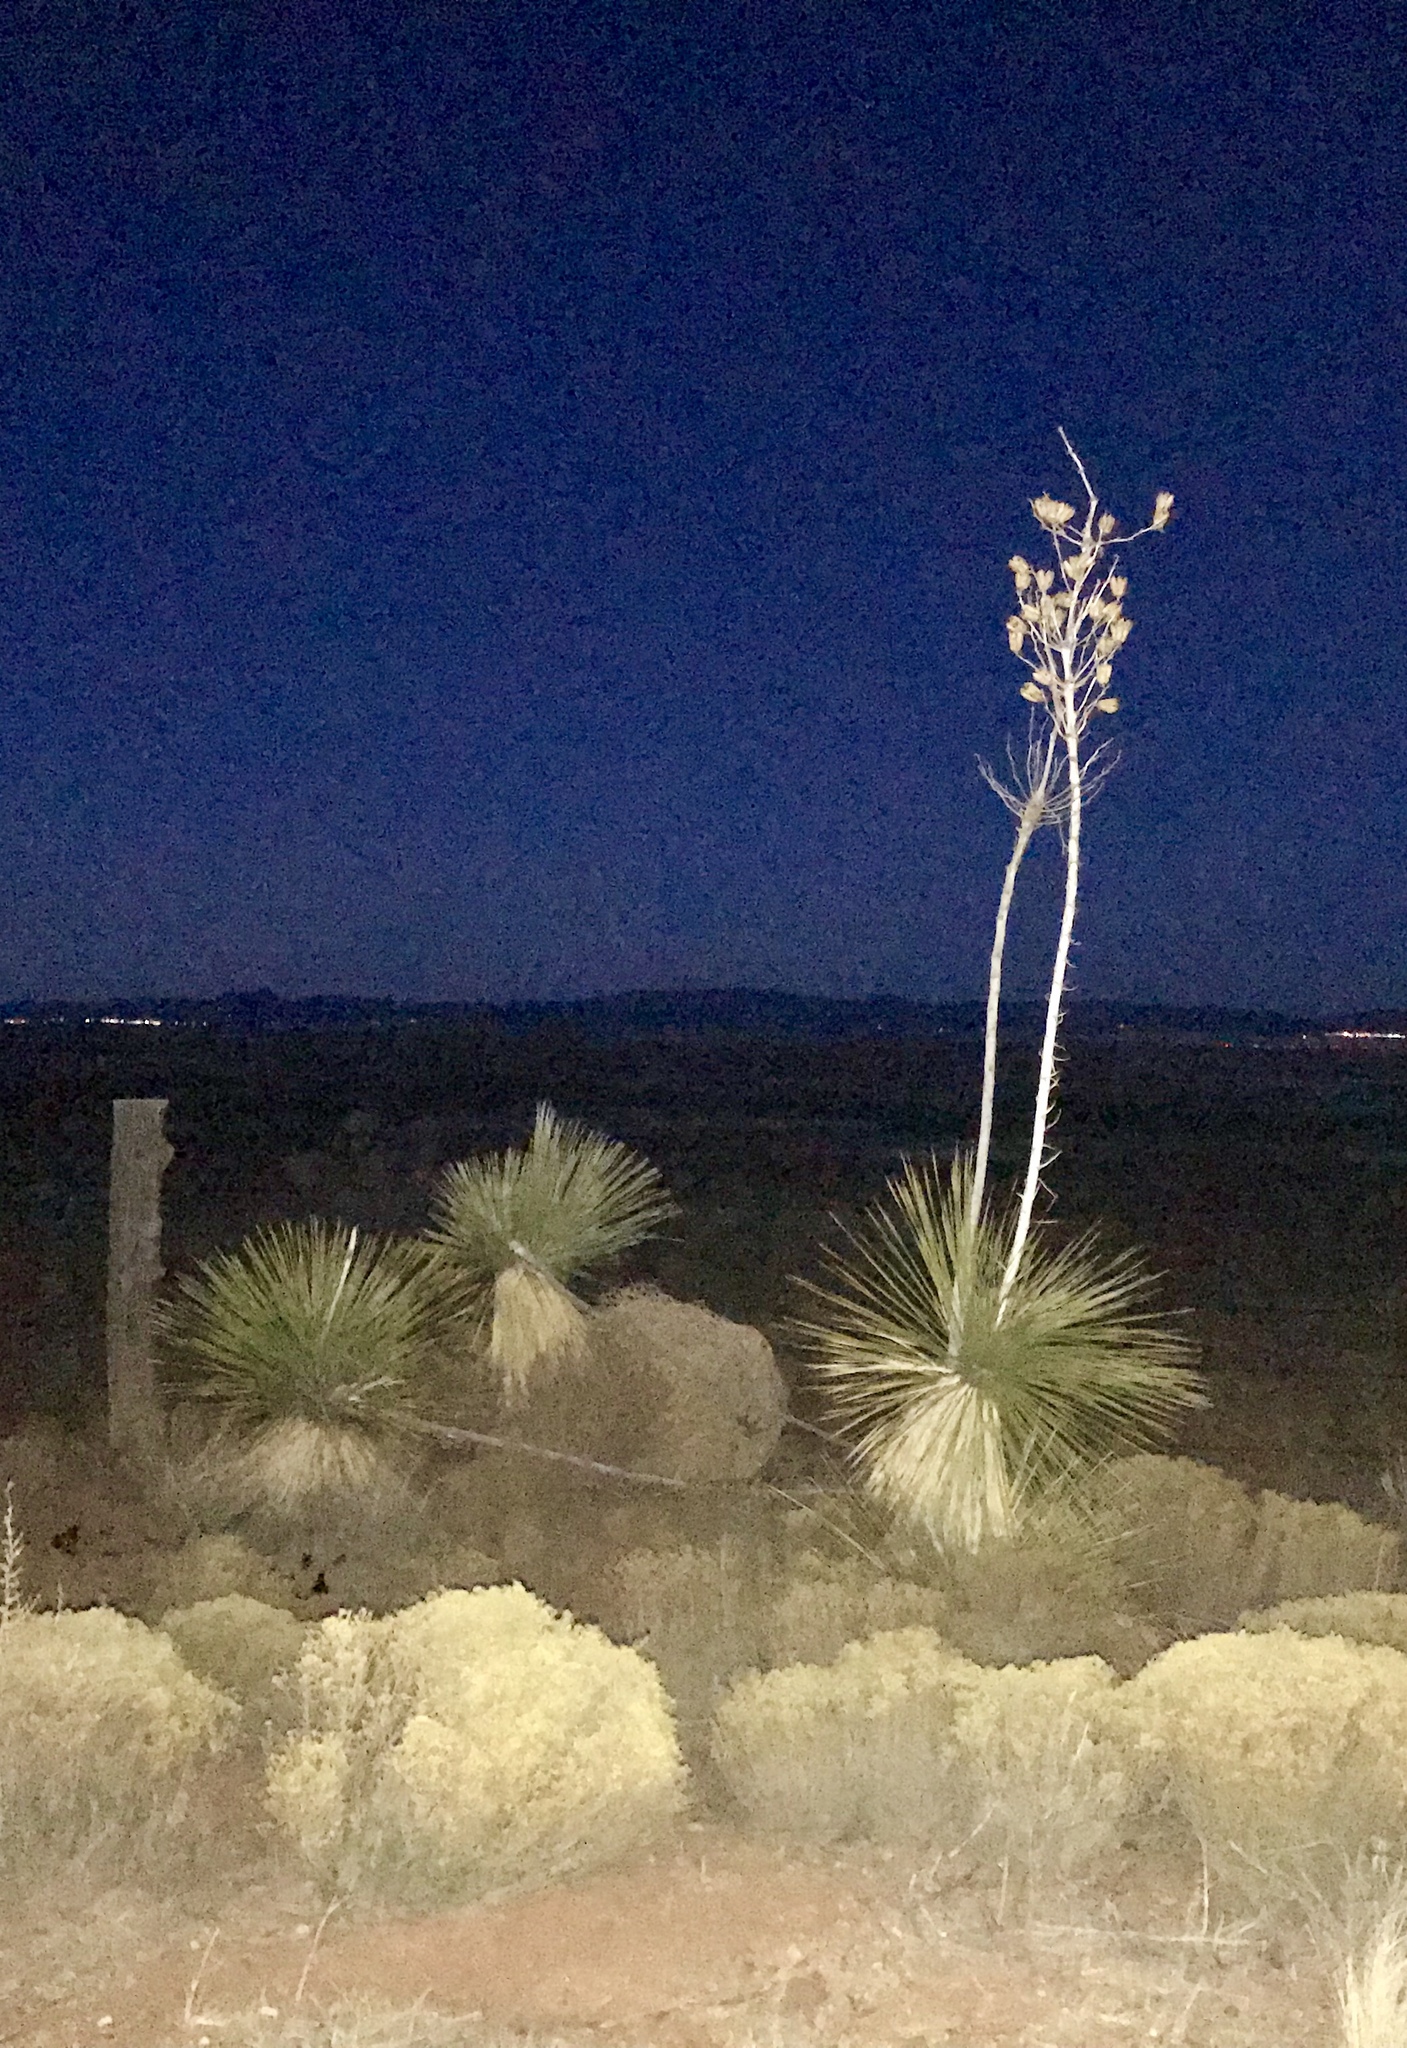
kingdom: Plantae
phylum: Tracheophyta
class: Liliopsida
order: Asparagales
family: Asparagaceae
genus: Yucca
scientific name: Yucca elata
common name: Palmella
